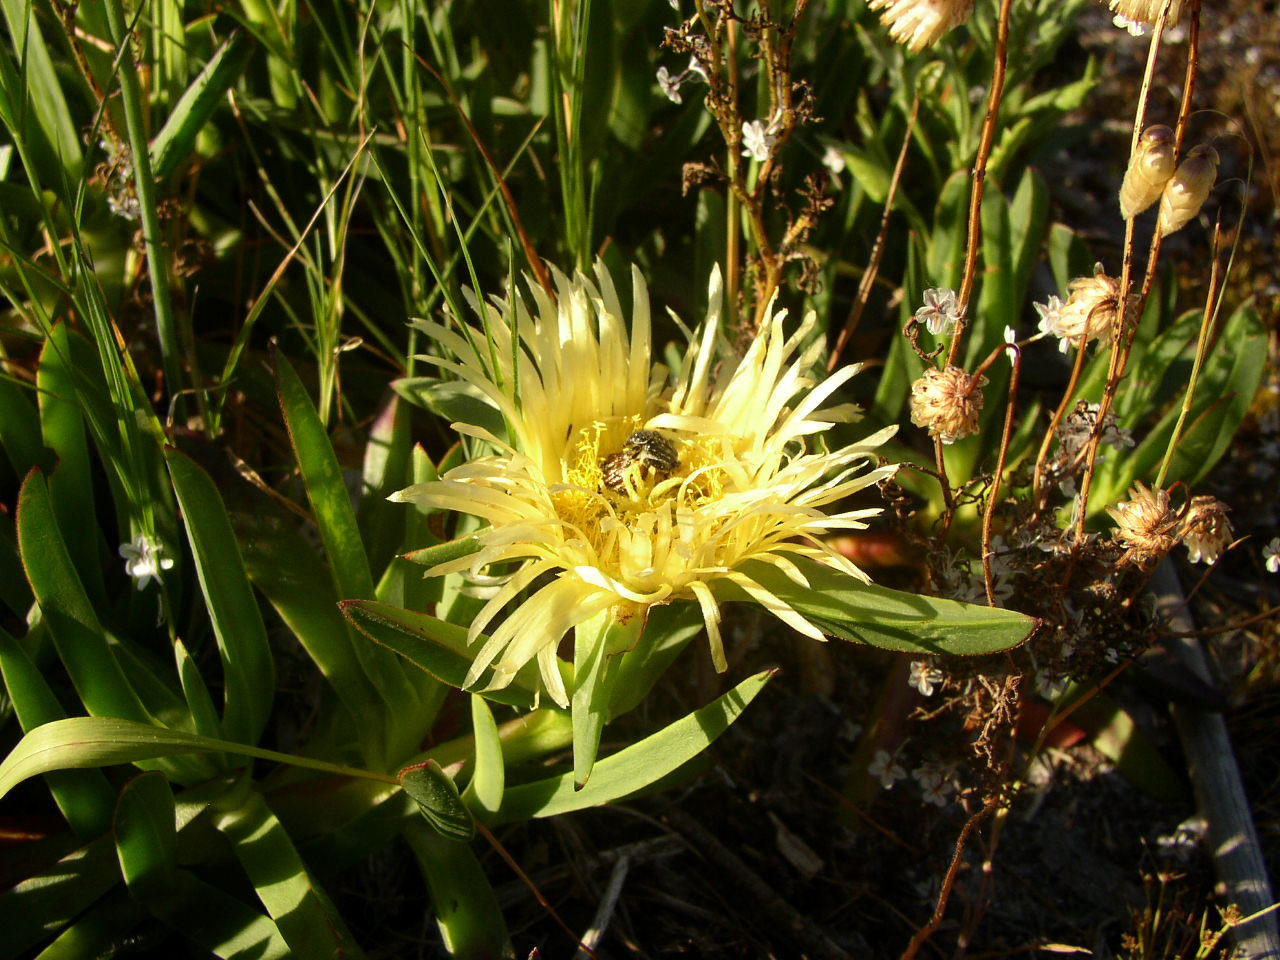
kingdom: Plantae
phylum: Tracheophyta
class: Magnoliopsida
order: Caryophyllales
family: Aizoaceae
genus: Carpobrotus
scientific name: Carpobrotus edulis
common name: Hottentot-fig
